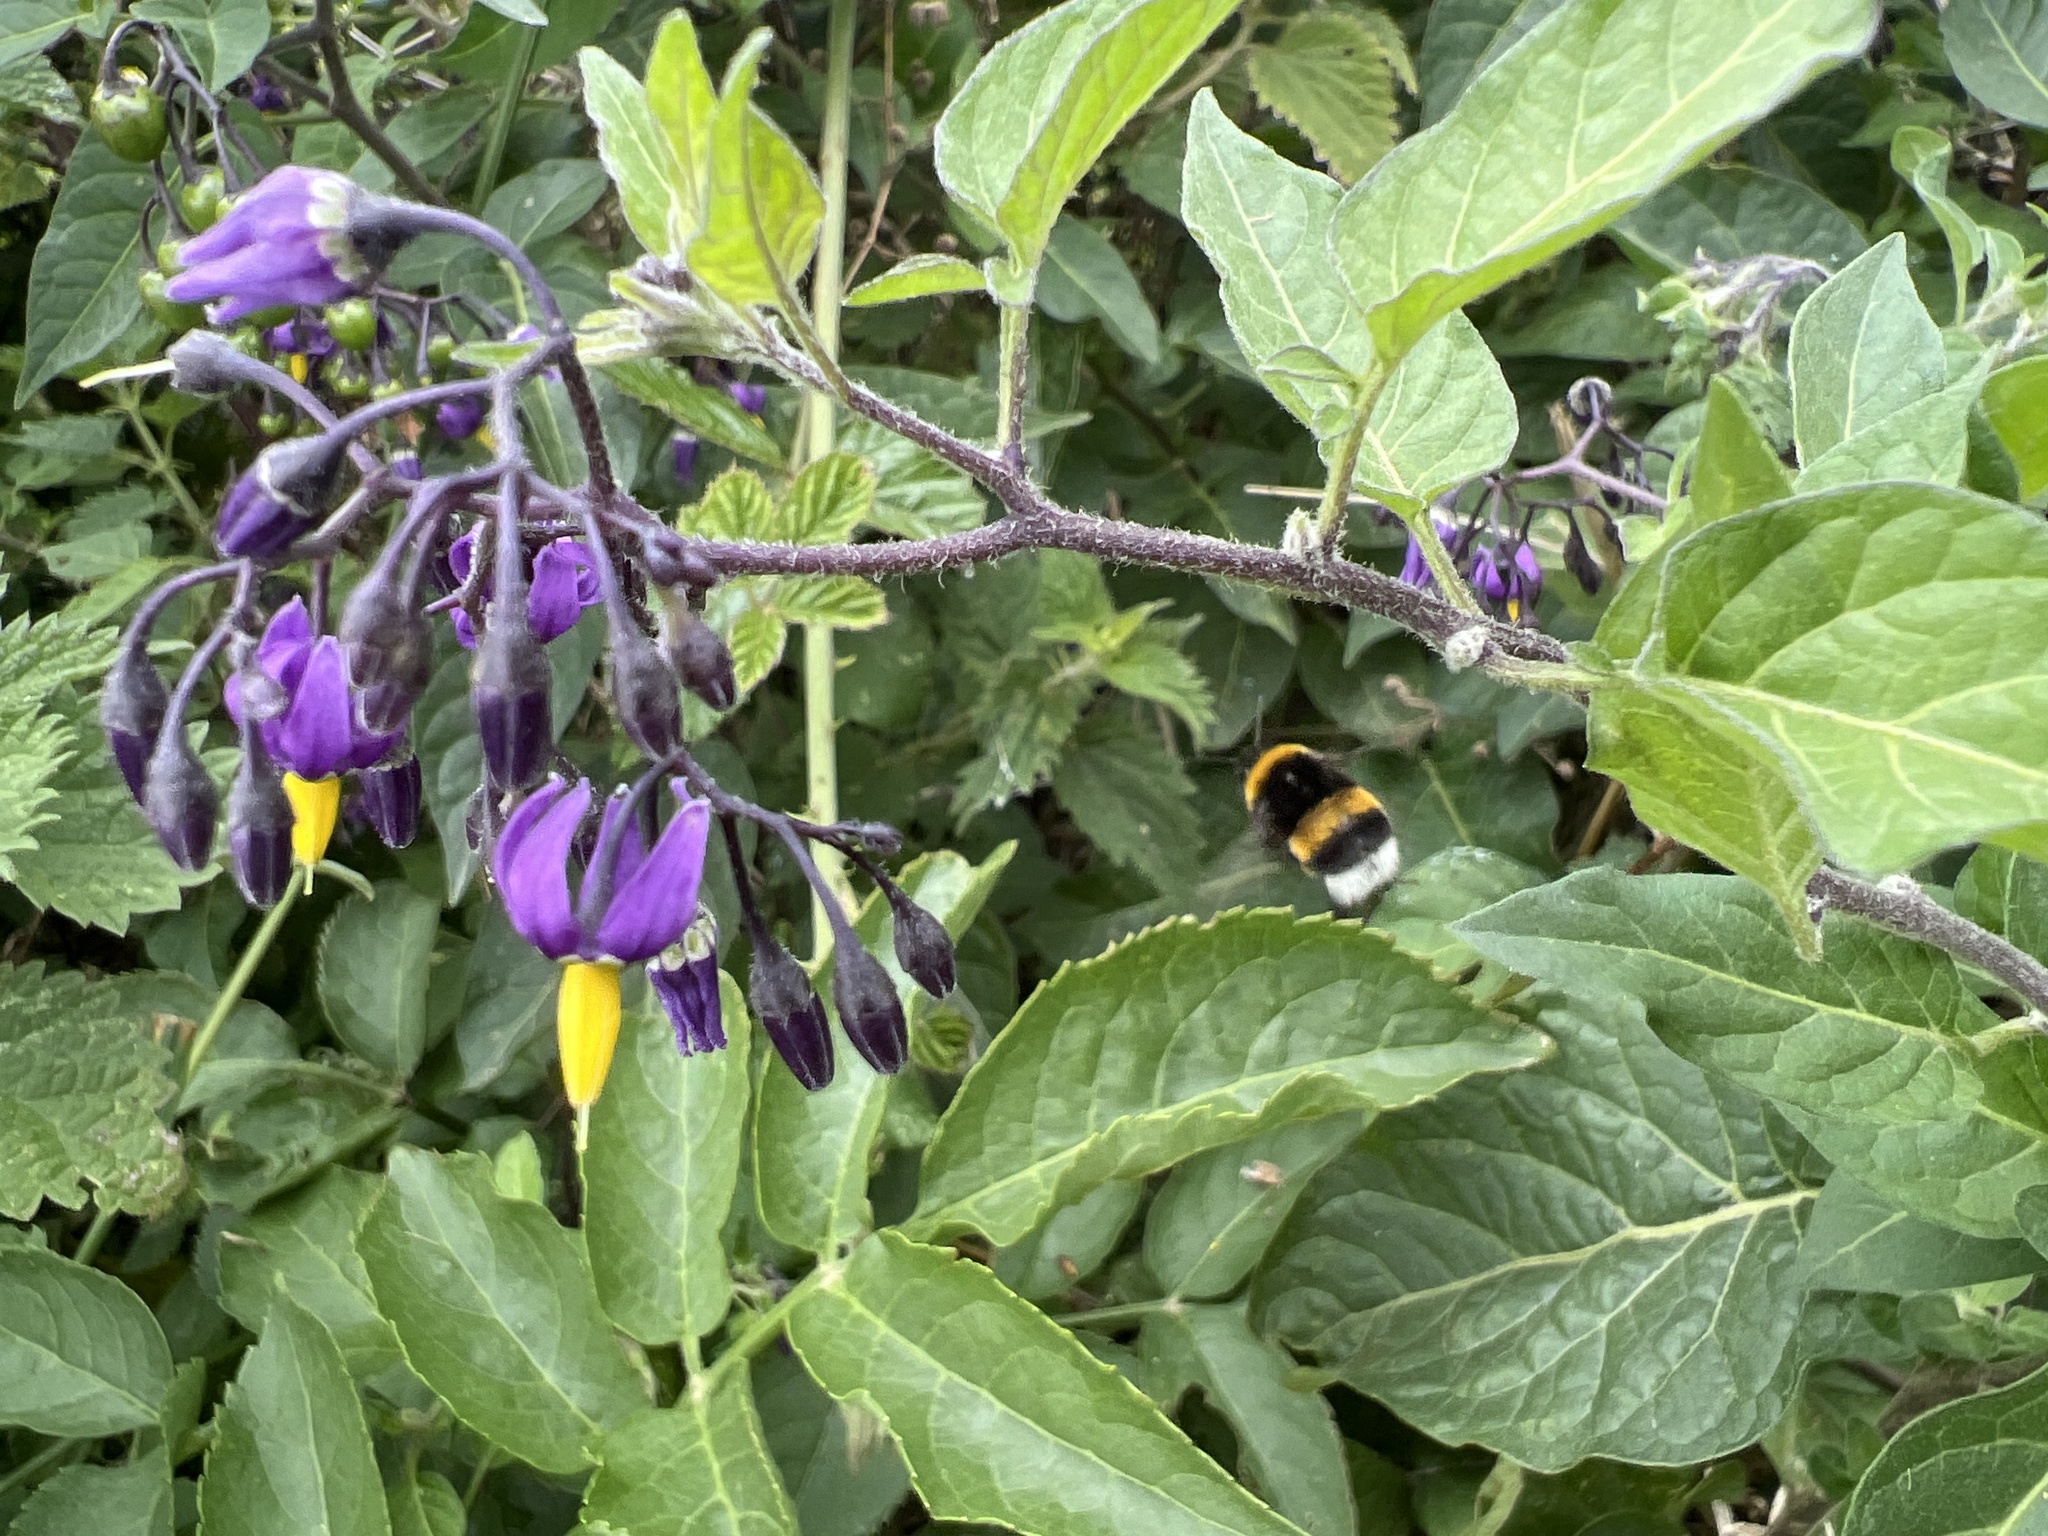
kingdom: Plantae
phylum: Tracheophyta
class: Magnoliopsida
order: Solanales
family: Solanaceae
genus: Solanum
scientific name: Solanum dulcamara
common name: Climbing nightshade
